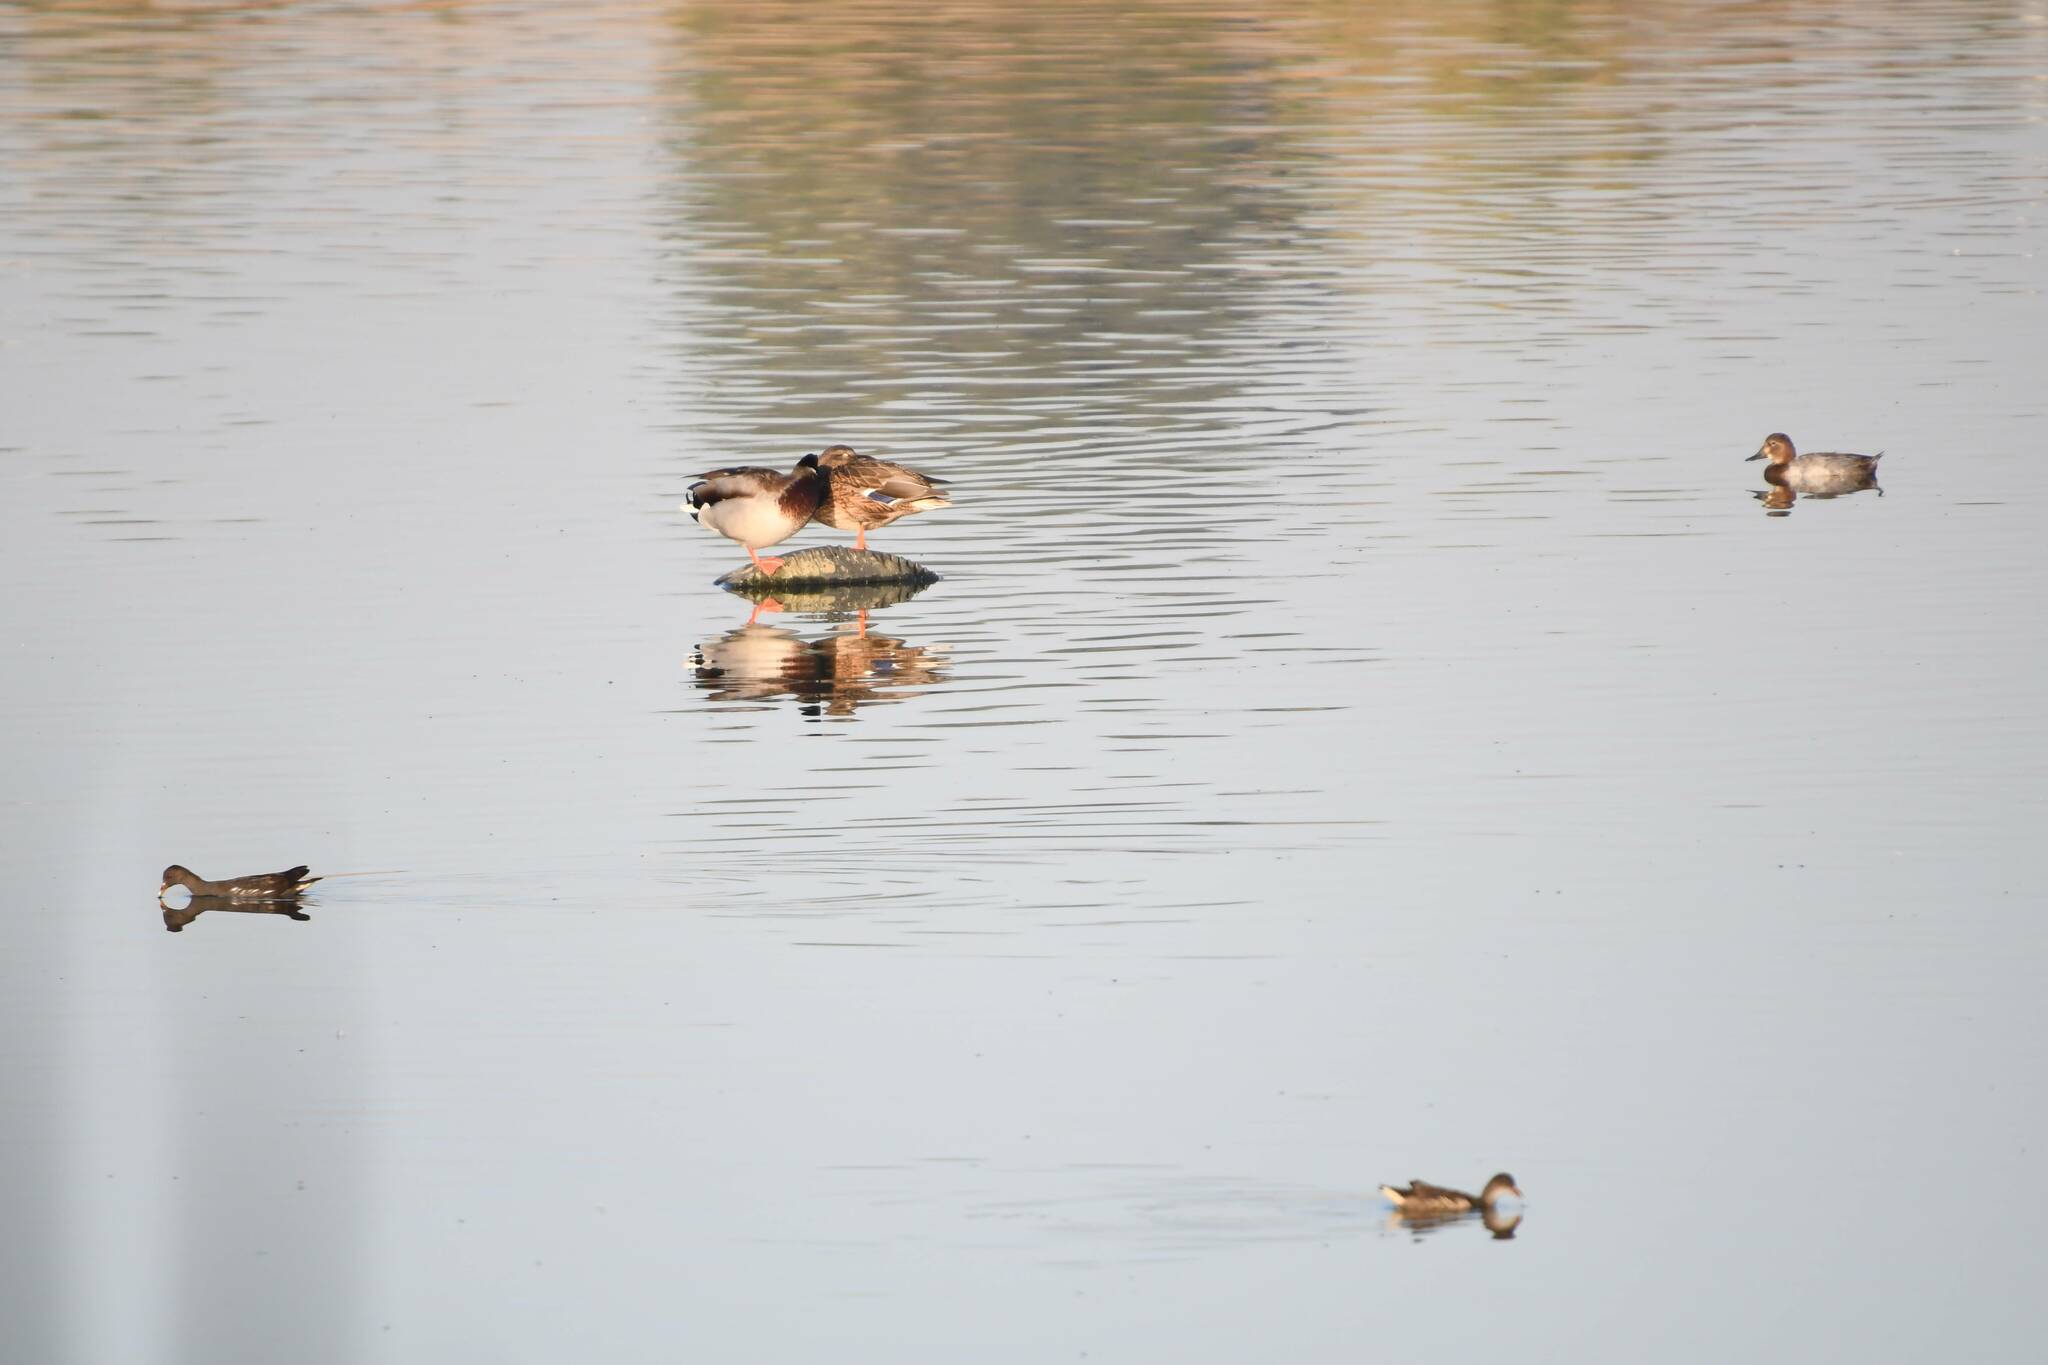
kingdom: Animalia
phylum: Chordata
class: Aves
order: Anseriformes
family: Anatidae
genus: Anas
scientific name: Anas platyrhynchos
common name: Mallard
